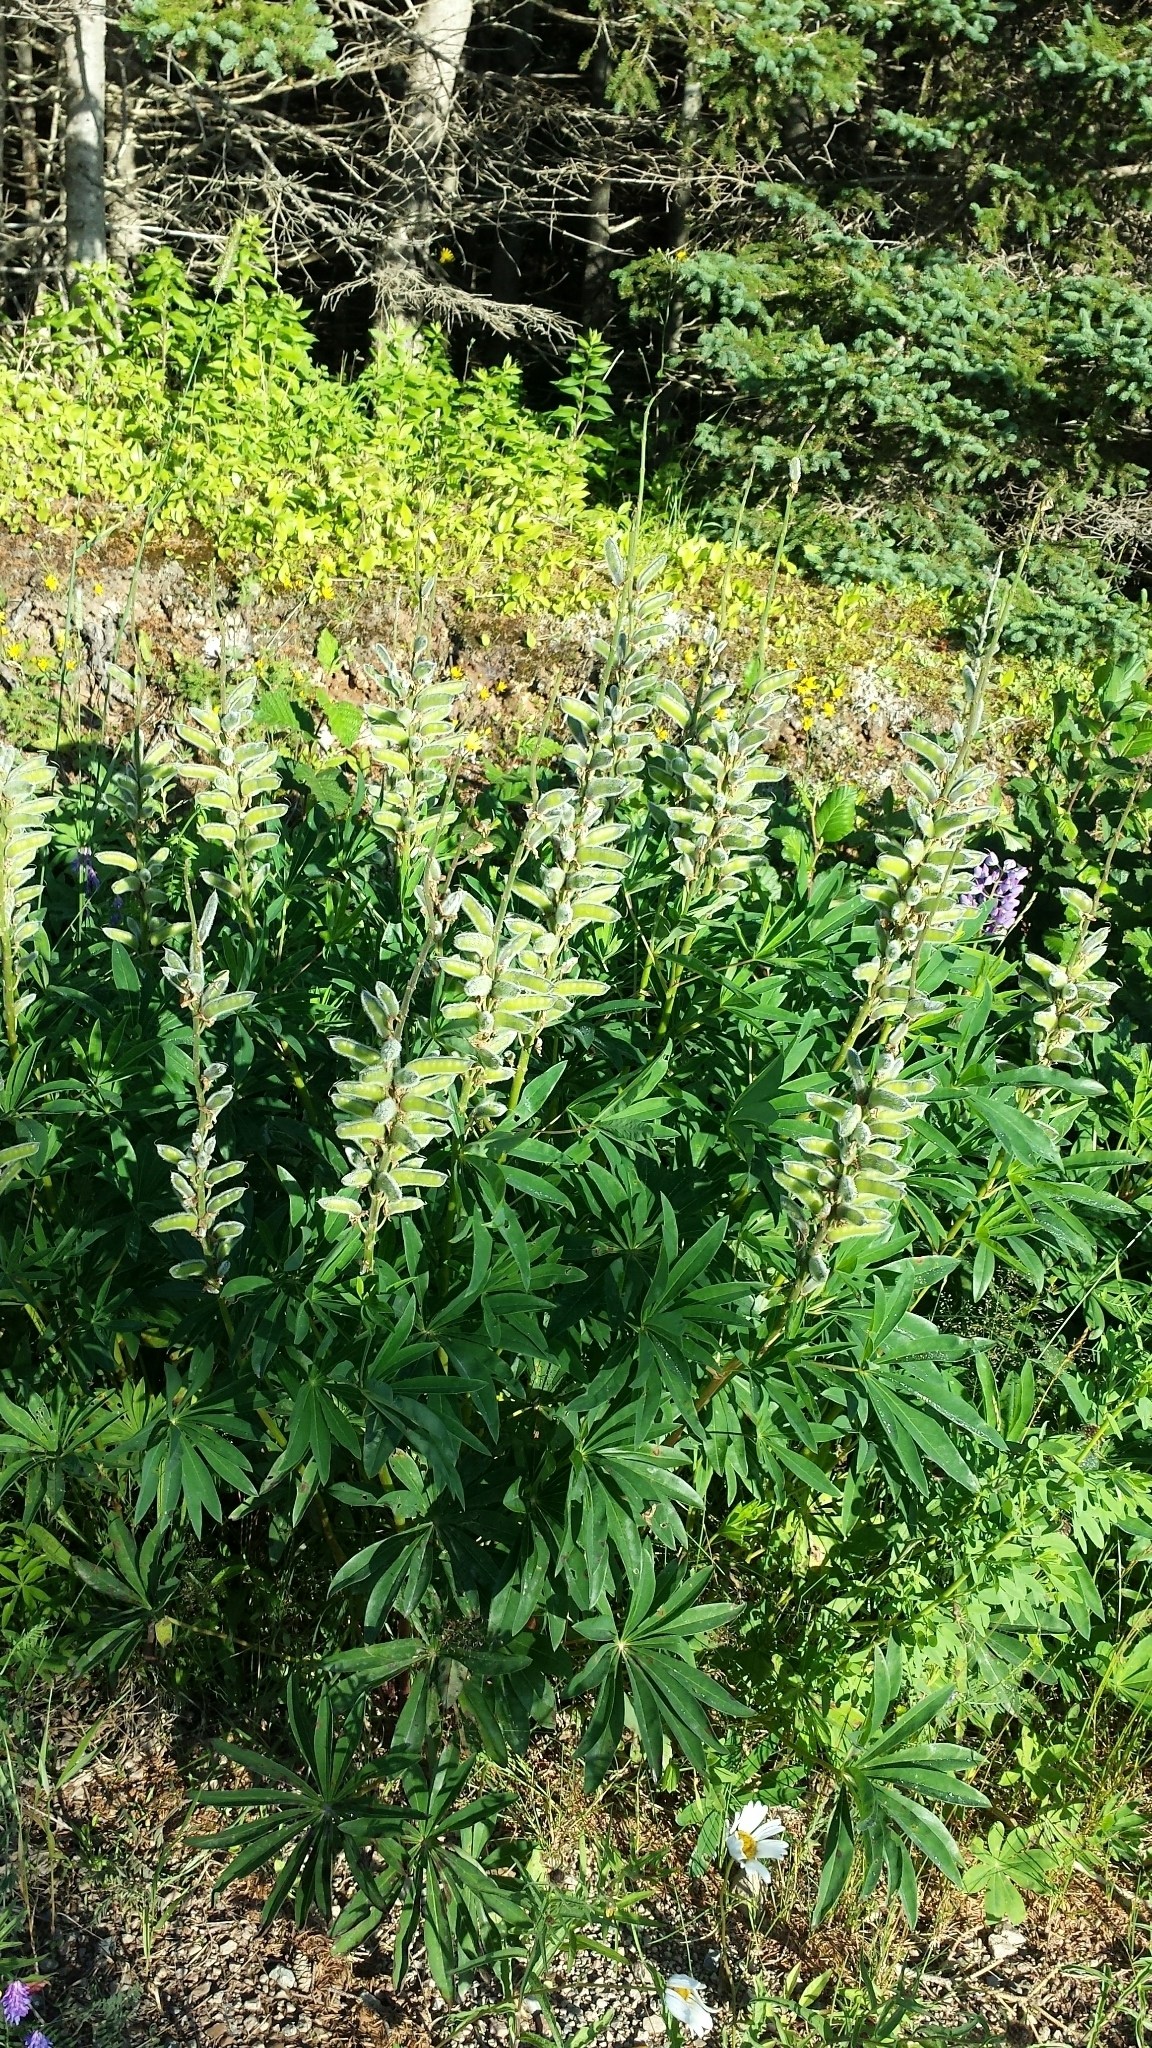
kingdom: Plantae
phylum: Tracheophyta
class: Magnoliopsida
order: Fabales
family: Fabaceae
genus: Lupinus
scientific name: Lupinus polyphyllus
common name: Garden lupin
